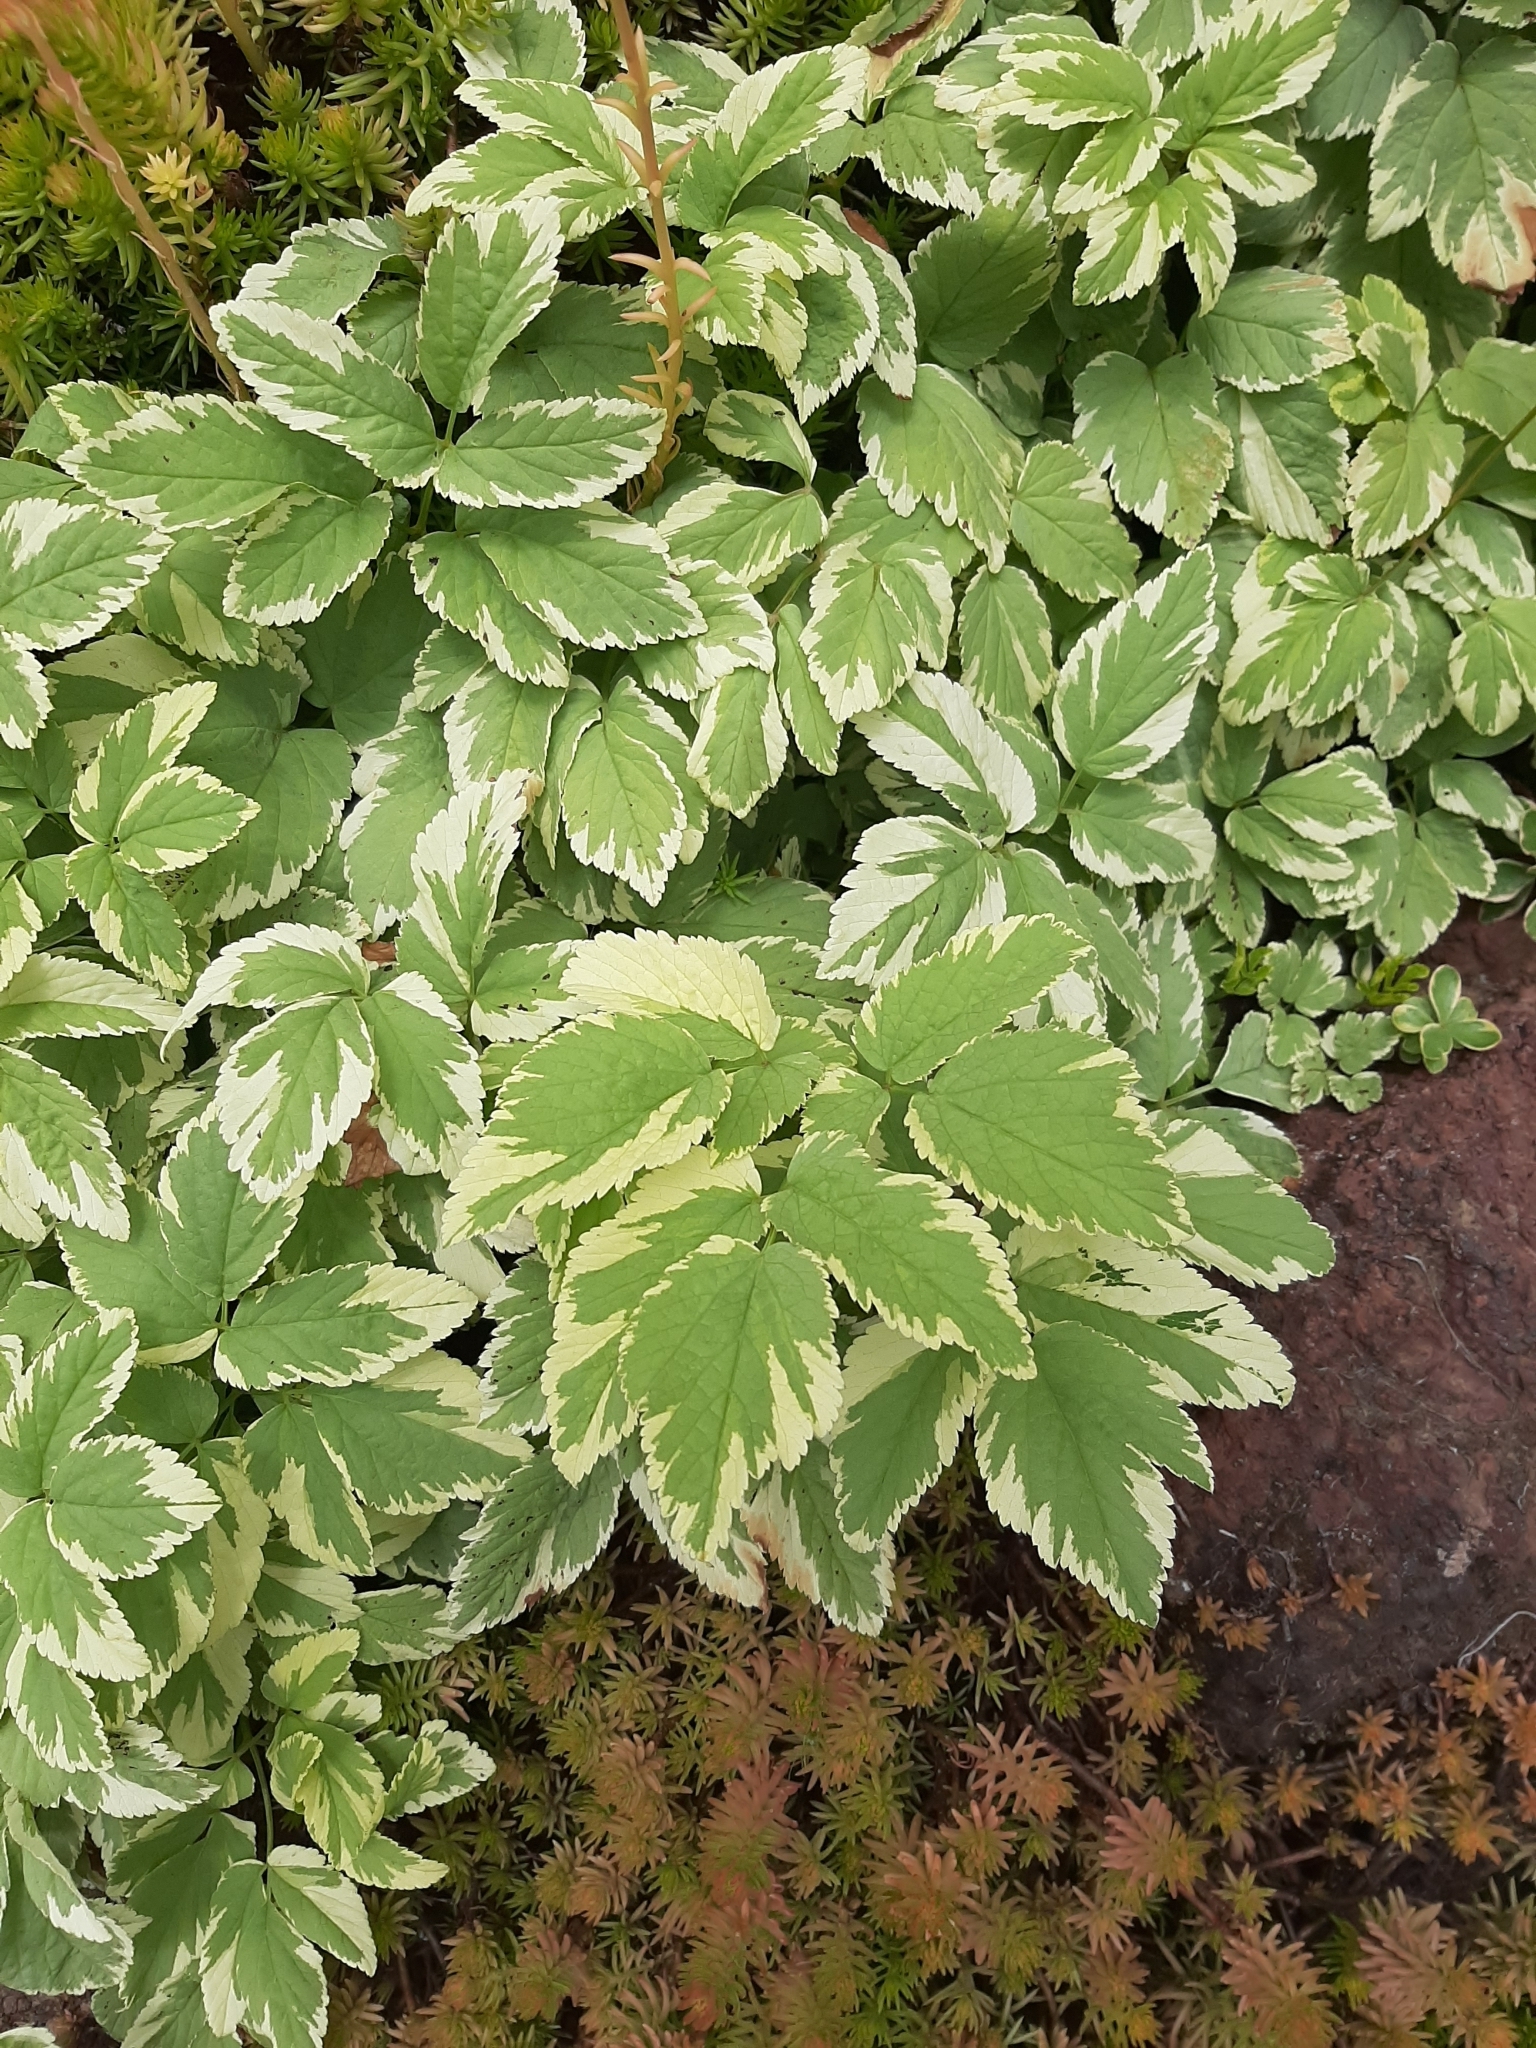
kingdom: Plantae
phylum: Tracheophyta
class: Magnoliopsida
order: Apiales
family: Apiaceae
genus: Aegopodium
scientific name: Aegopodium podagraria
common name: Ground-elder
